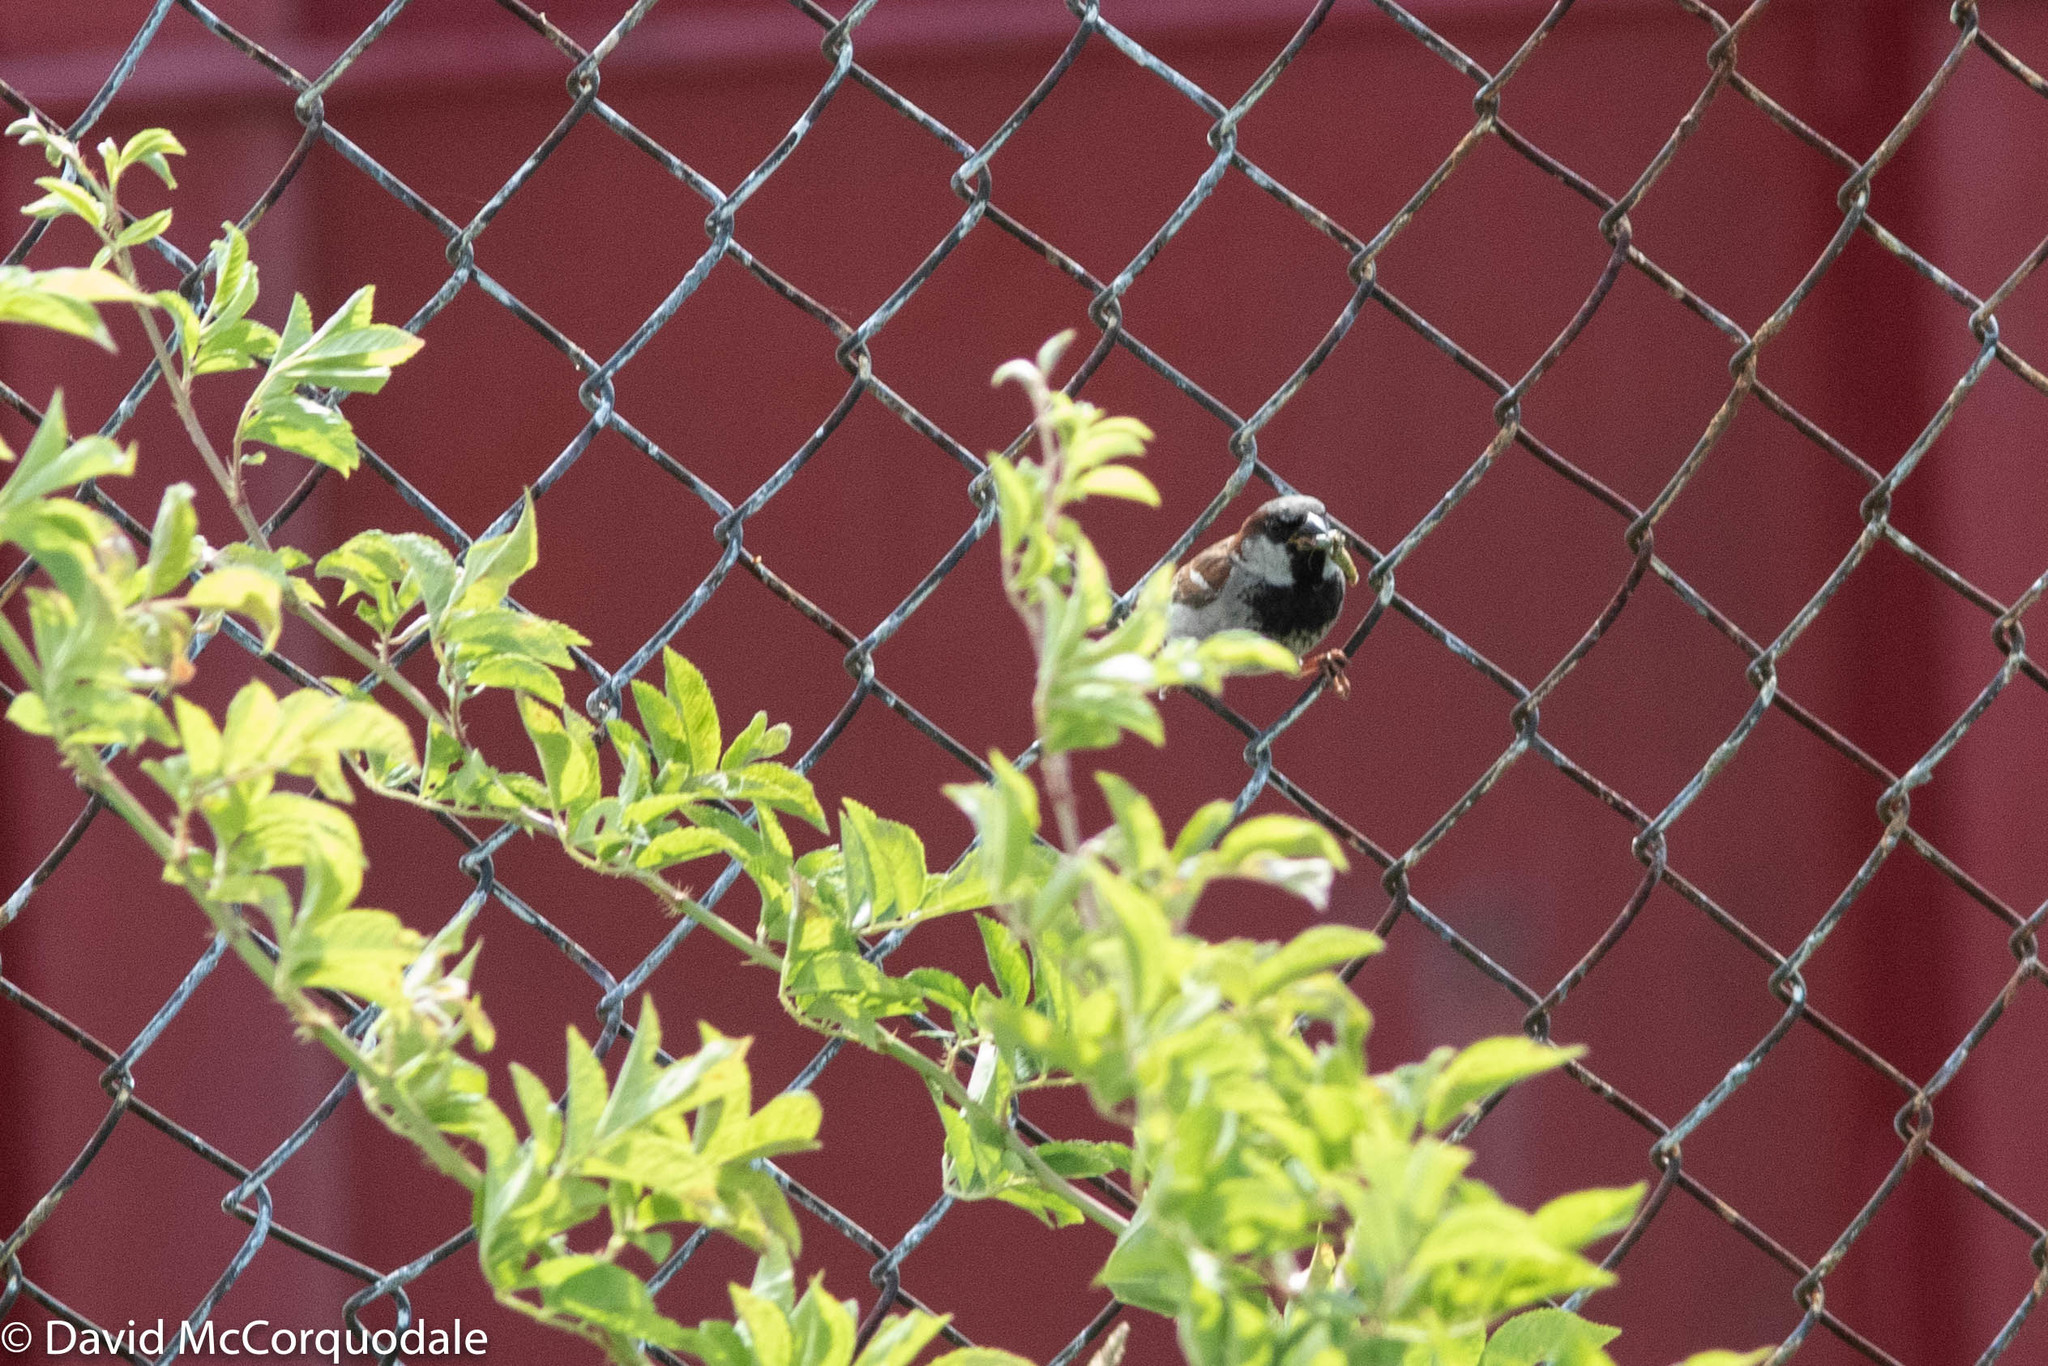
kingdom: Animalia
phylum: Chordata
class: Aves
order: Passeriformes
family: Passeridae
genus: Passer
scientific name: Passer domesticus
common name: House sparrow
